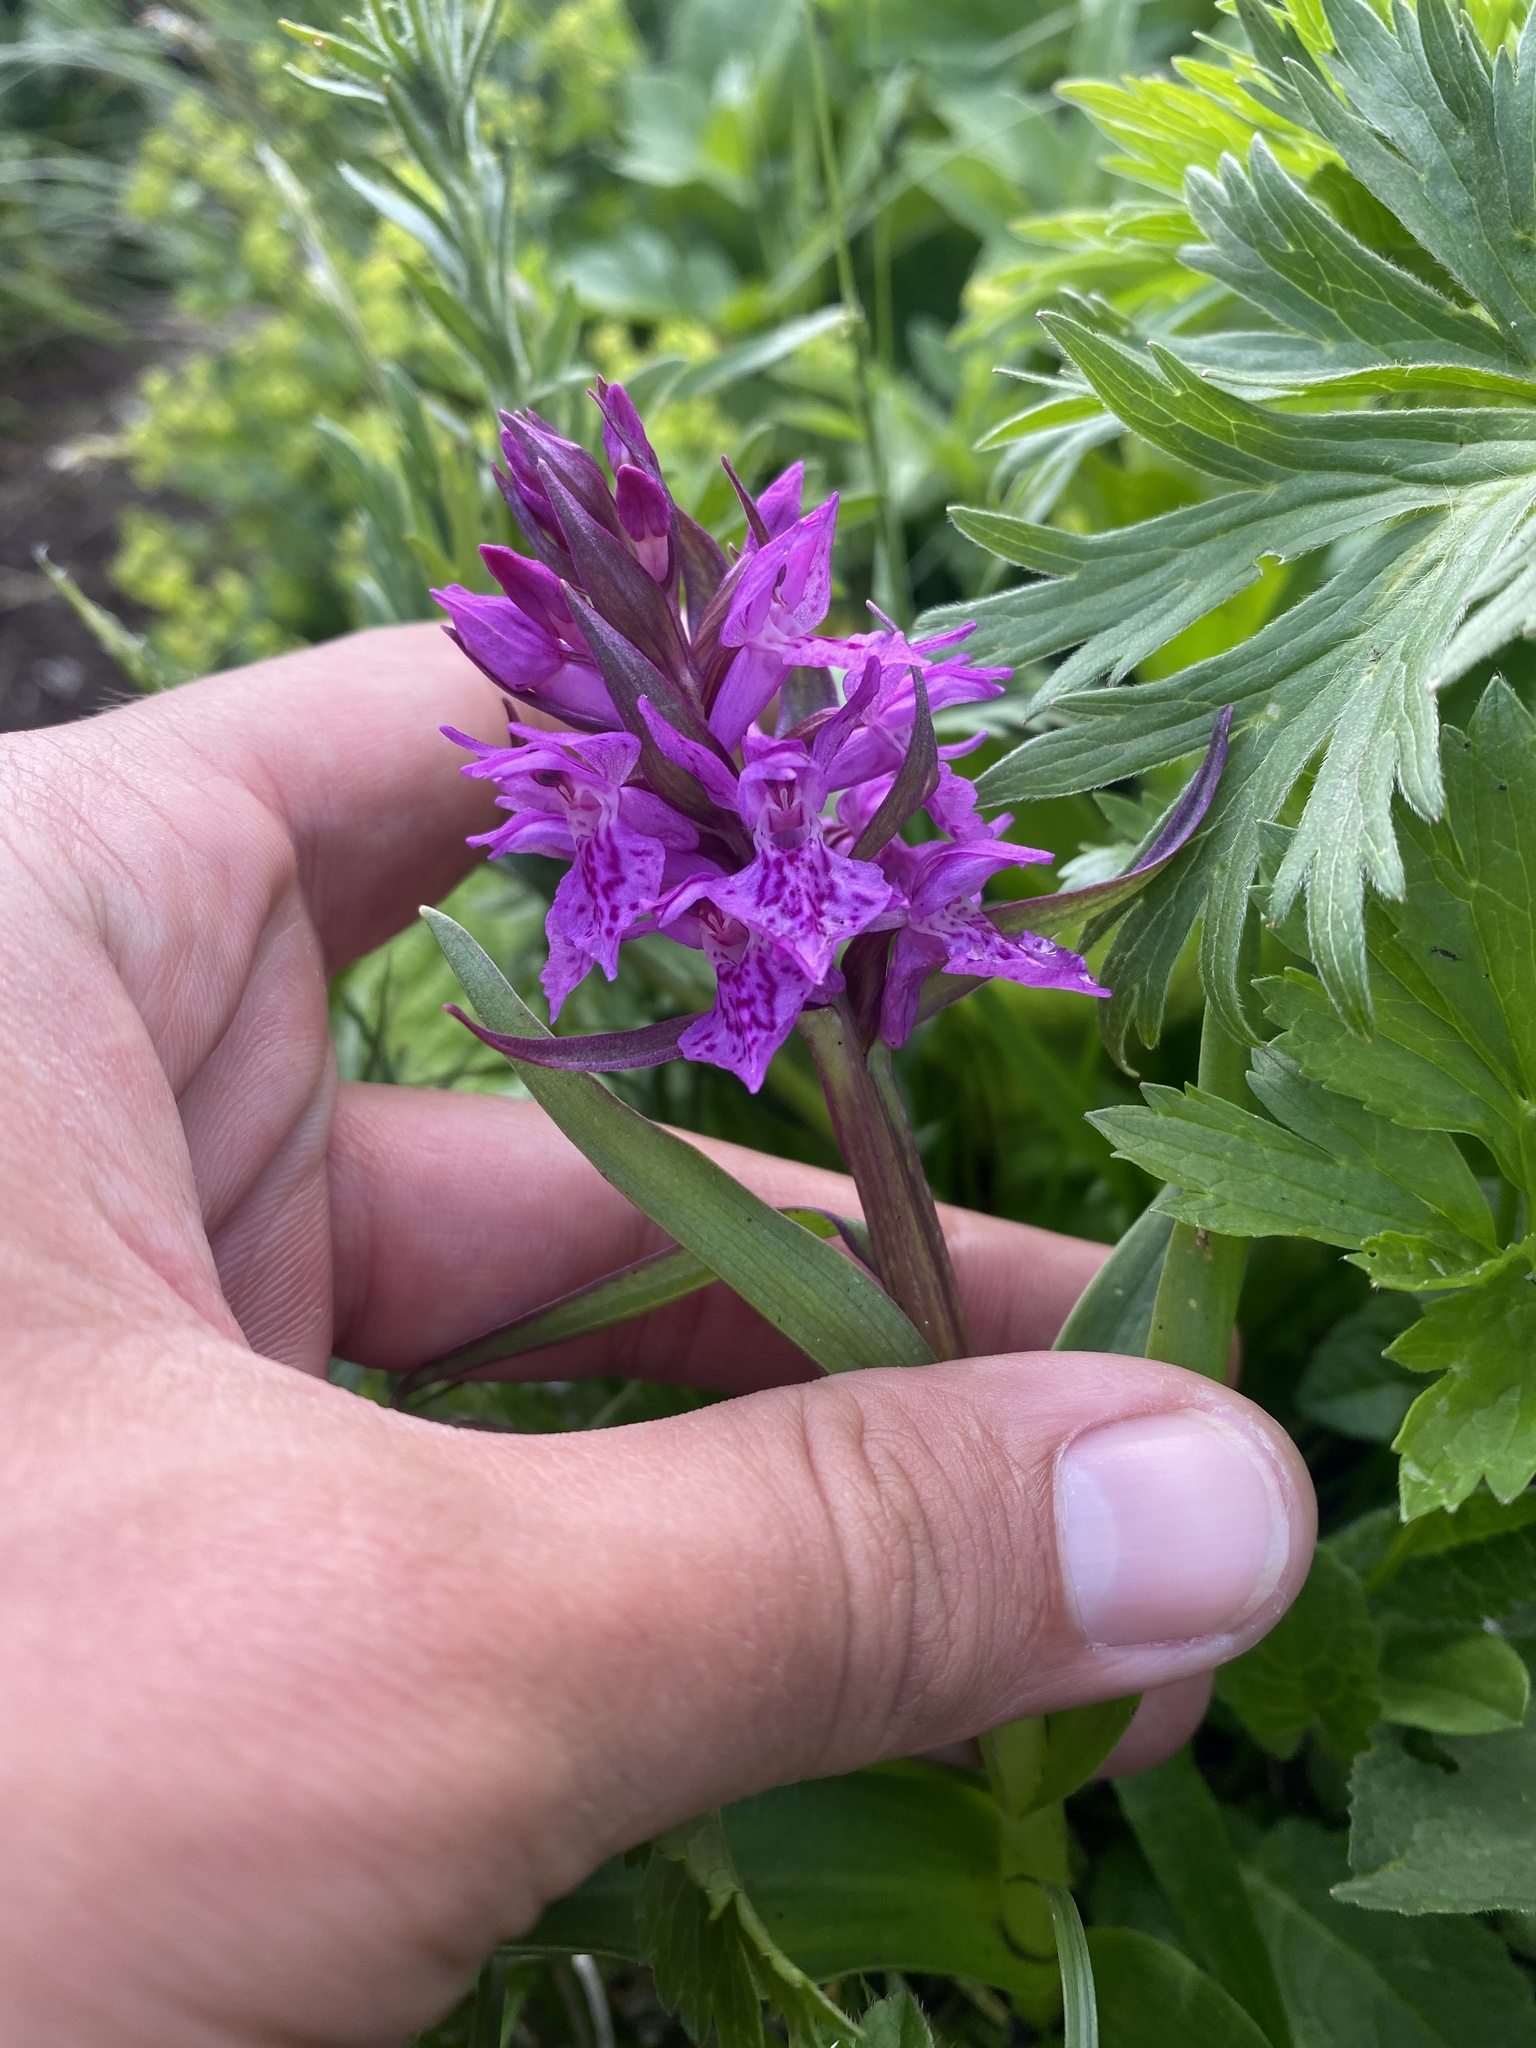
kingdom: Plantae
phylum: Tracheophyta
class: Liliopsida
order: Asparagales
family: Orchidaceae
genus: Dactylorhiza
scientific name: Dactylorhiza euxina
